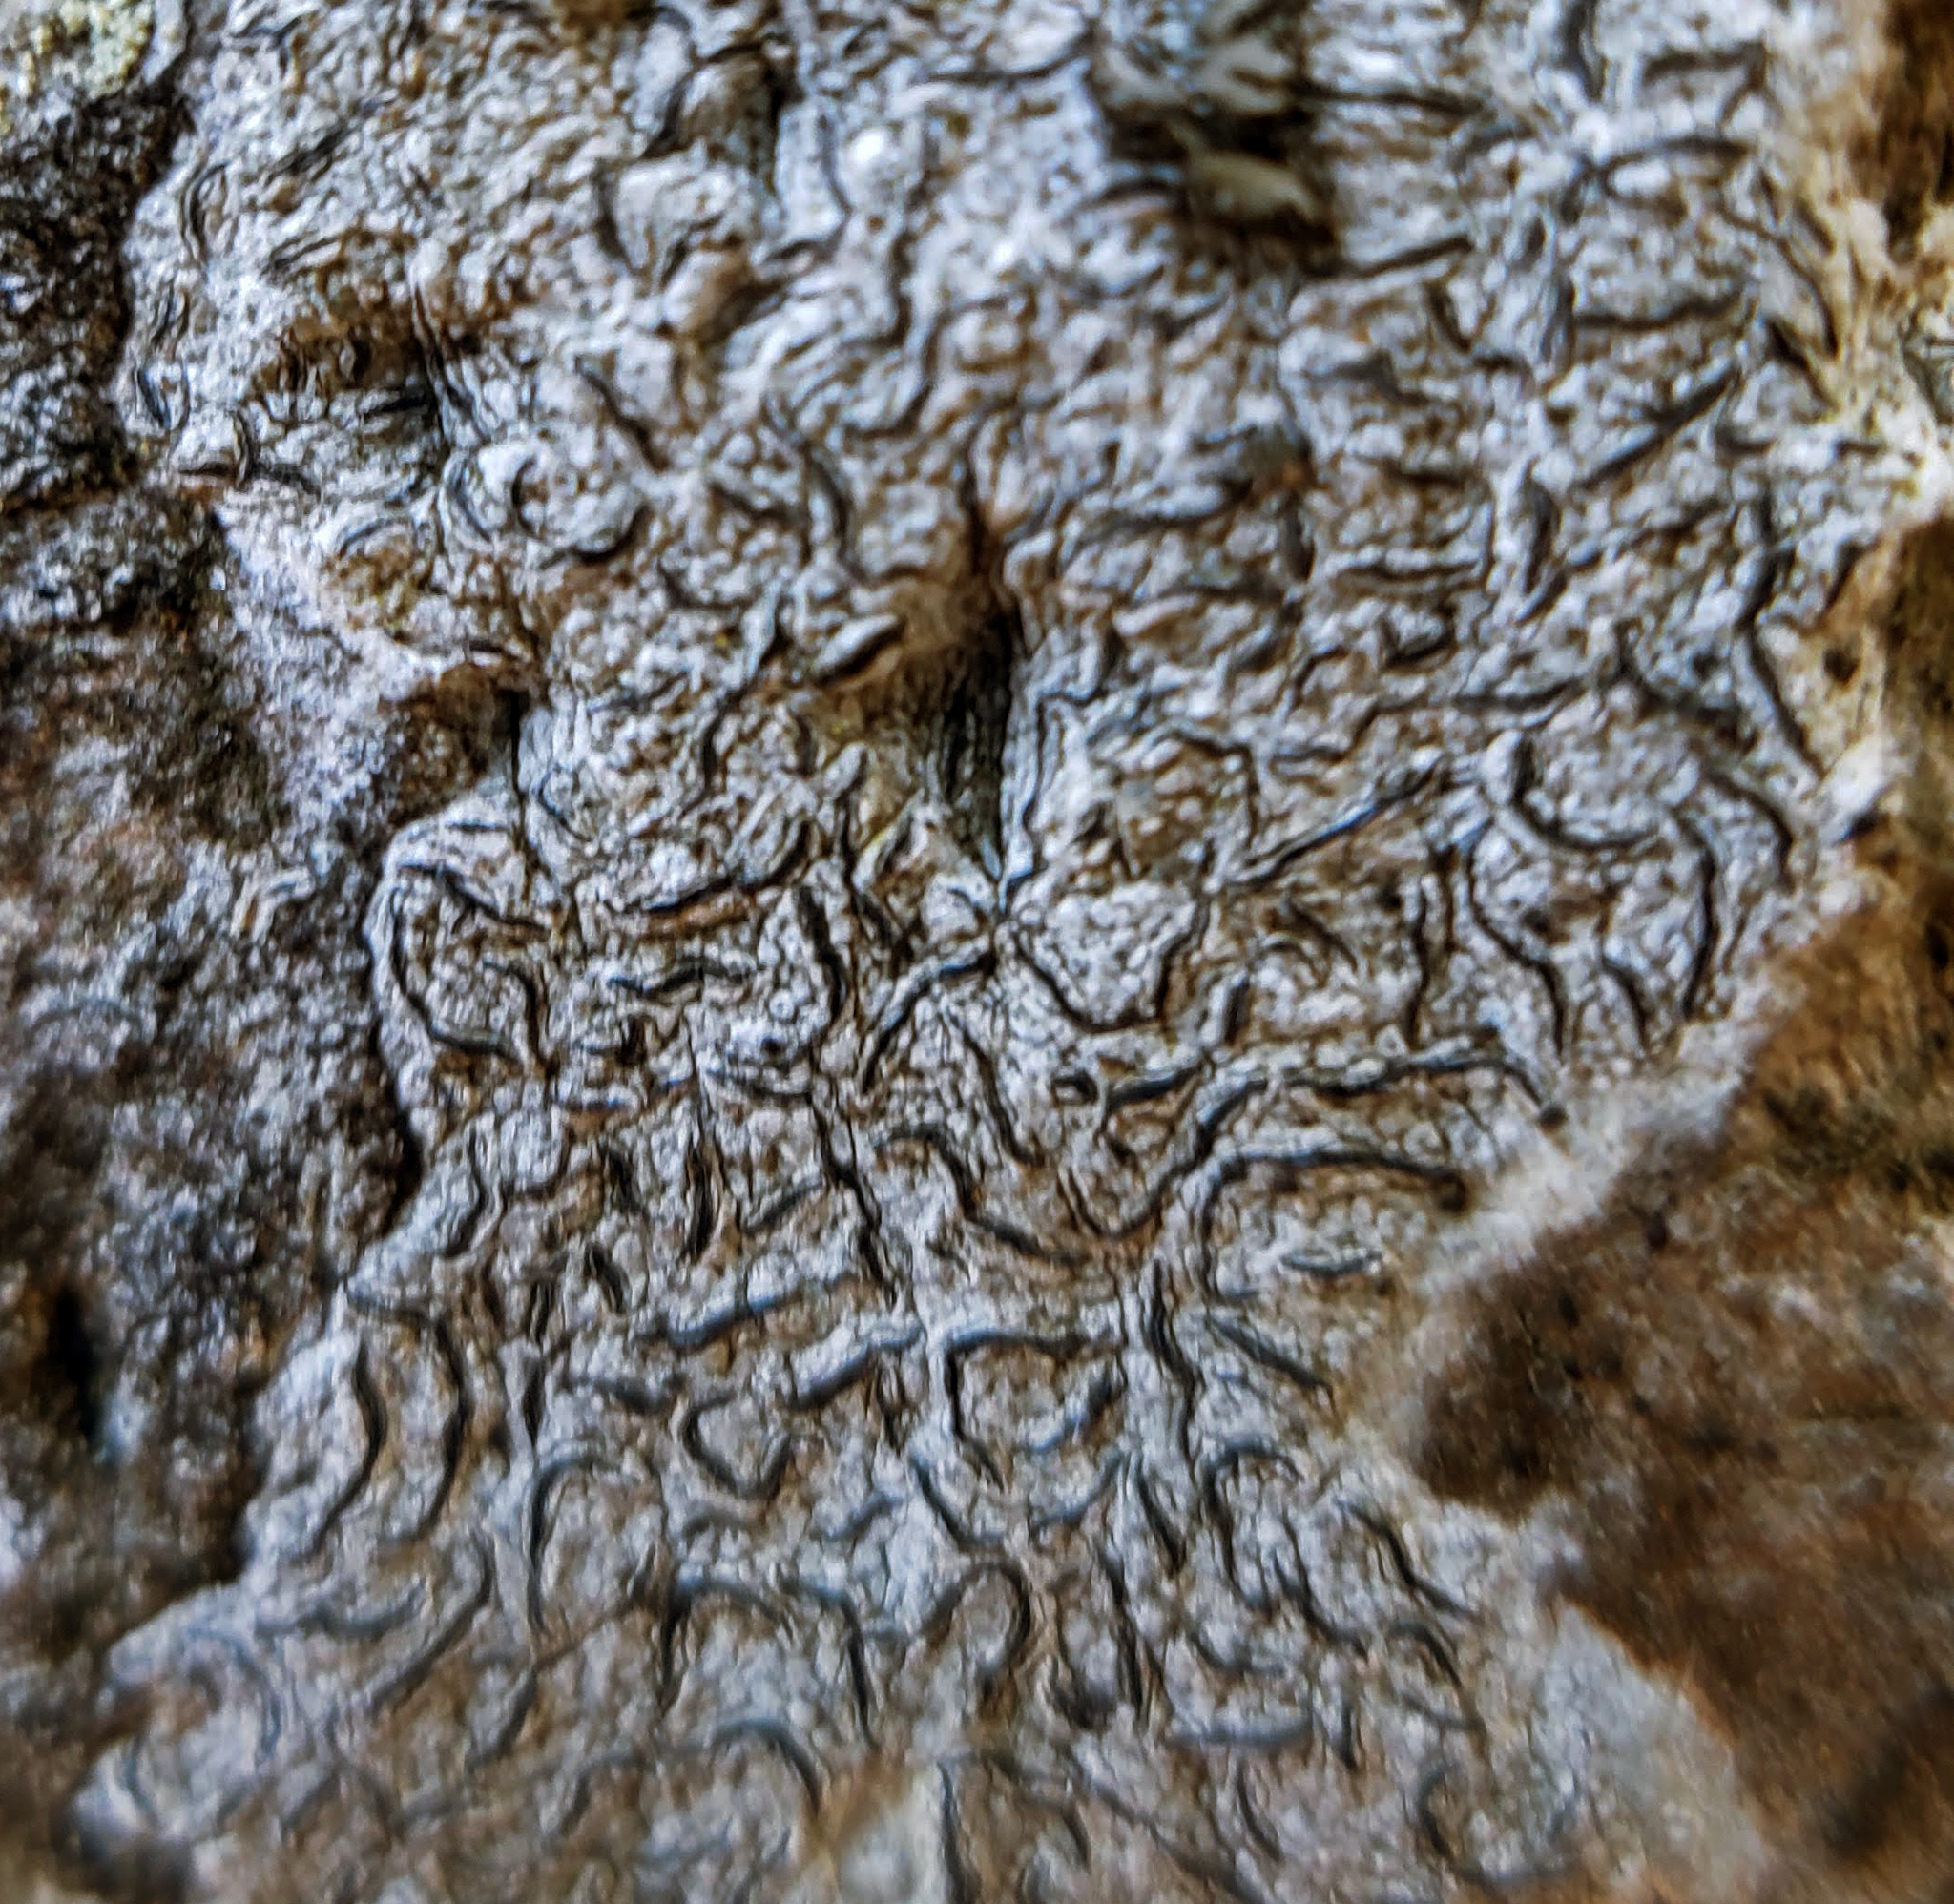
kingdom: Fungi
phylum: Ascomycota
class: Lecanoromycetes
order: Ostropales
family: Graphidaceae
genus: Graphis
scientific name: Graphis scripta
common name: Script lichen
